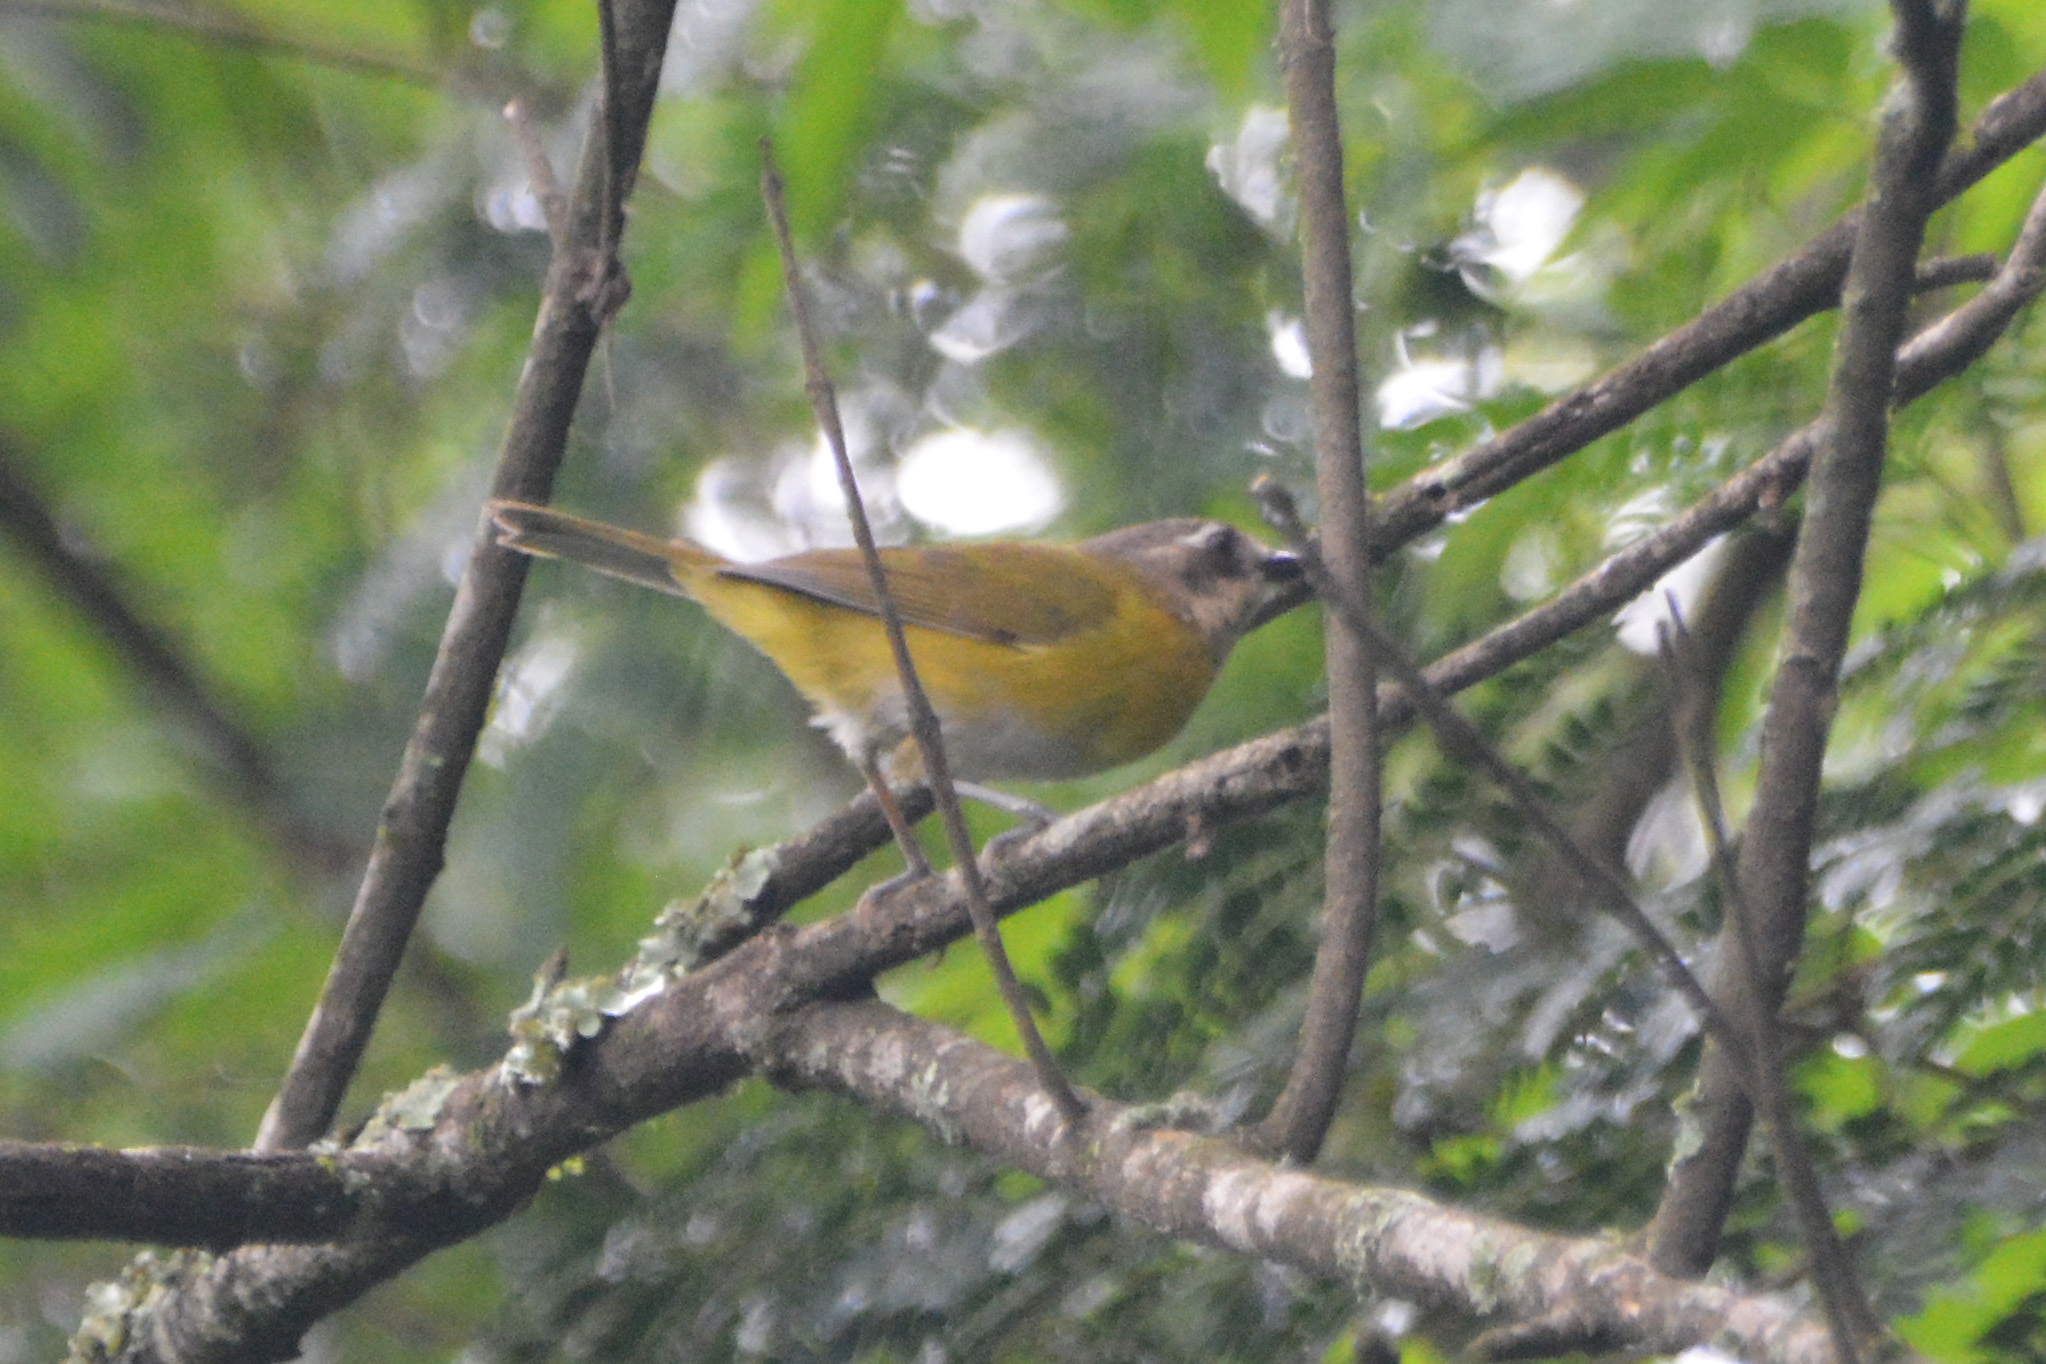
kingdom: Animalia
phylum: Chordata
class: Aves
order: Passeriformes
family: Passerellidae
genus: Chlorospingus
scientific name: Chlorospingus flavopectus
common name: Common chlorospingus
